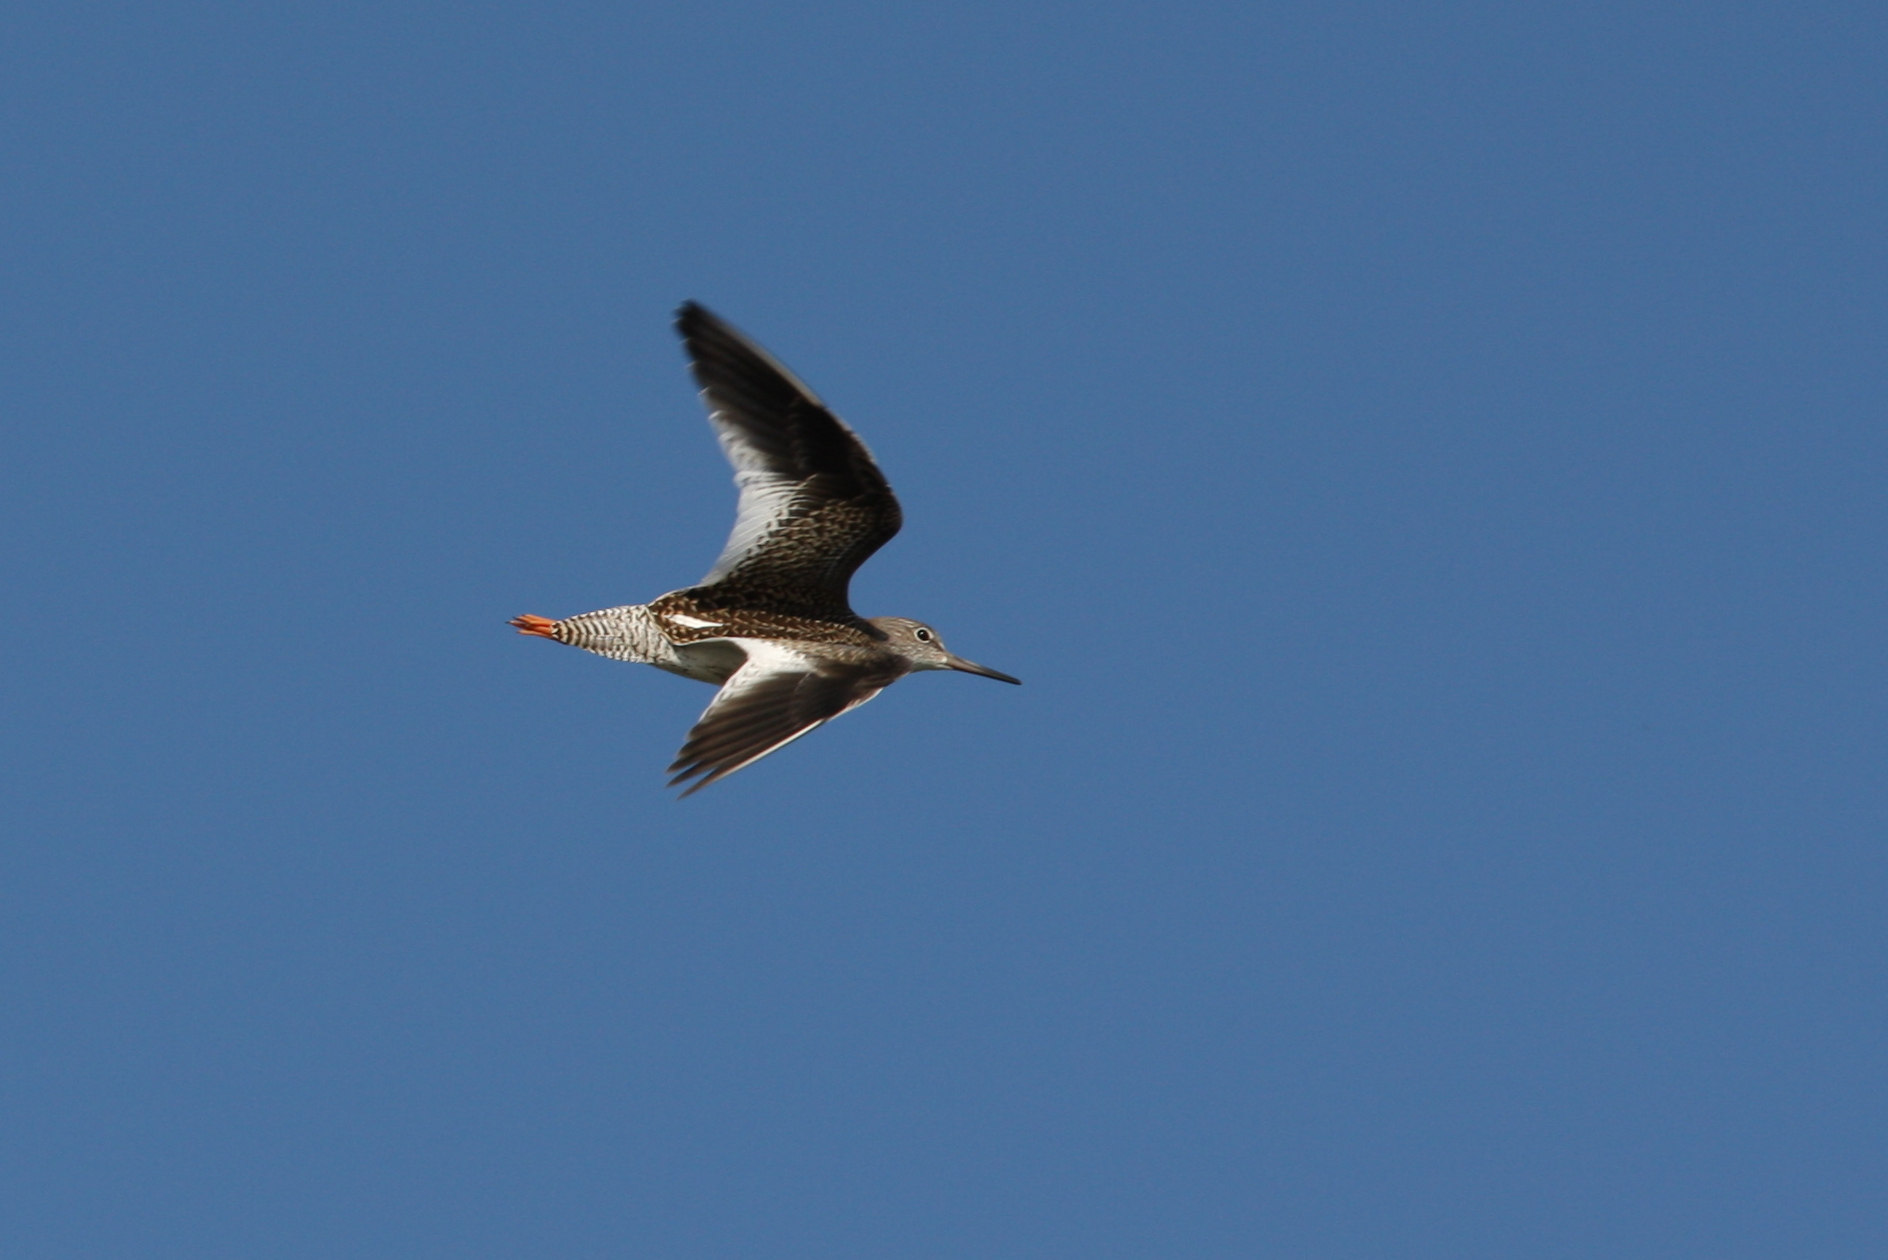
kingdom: Animalia
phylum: Chordata
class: Aves
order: Charadriiformes
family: Scolopacidae
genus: Tringa
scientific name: Tringa totanus
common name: Common redshank
